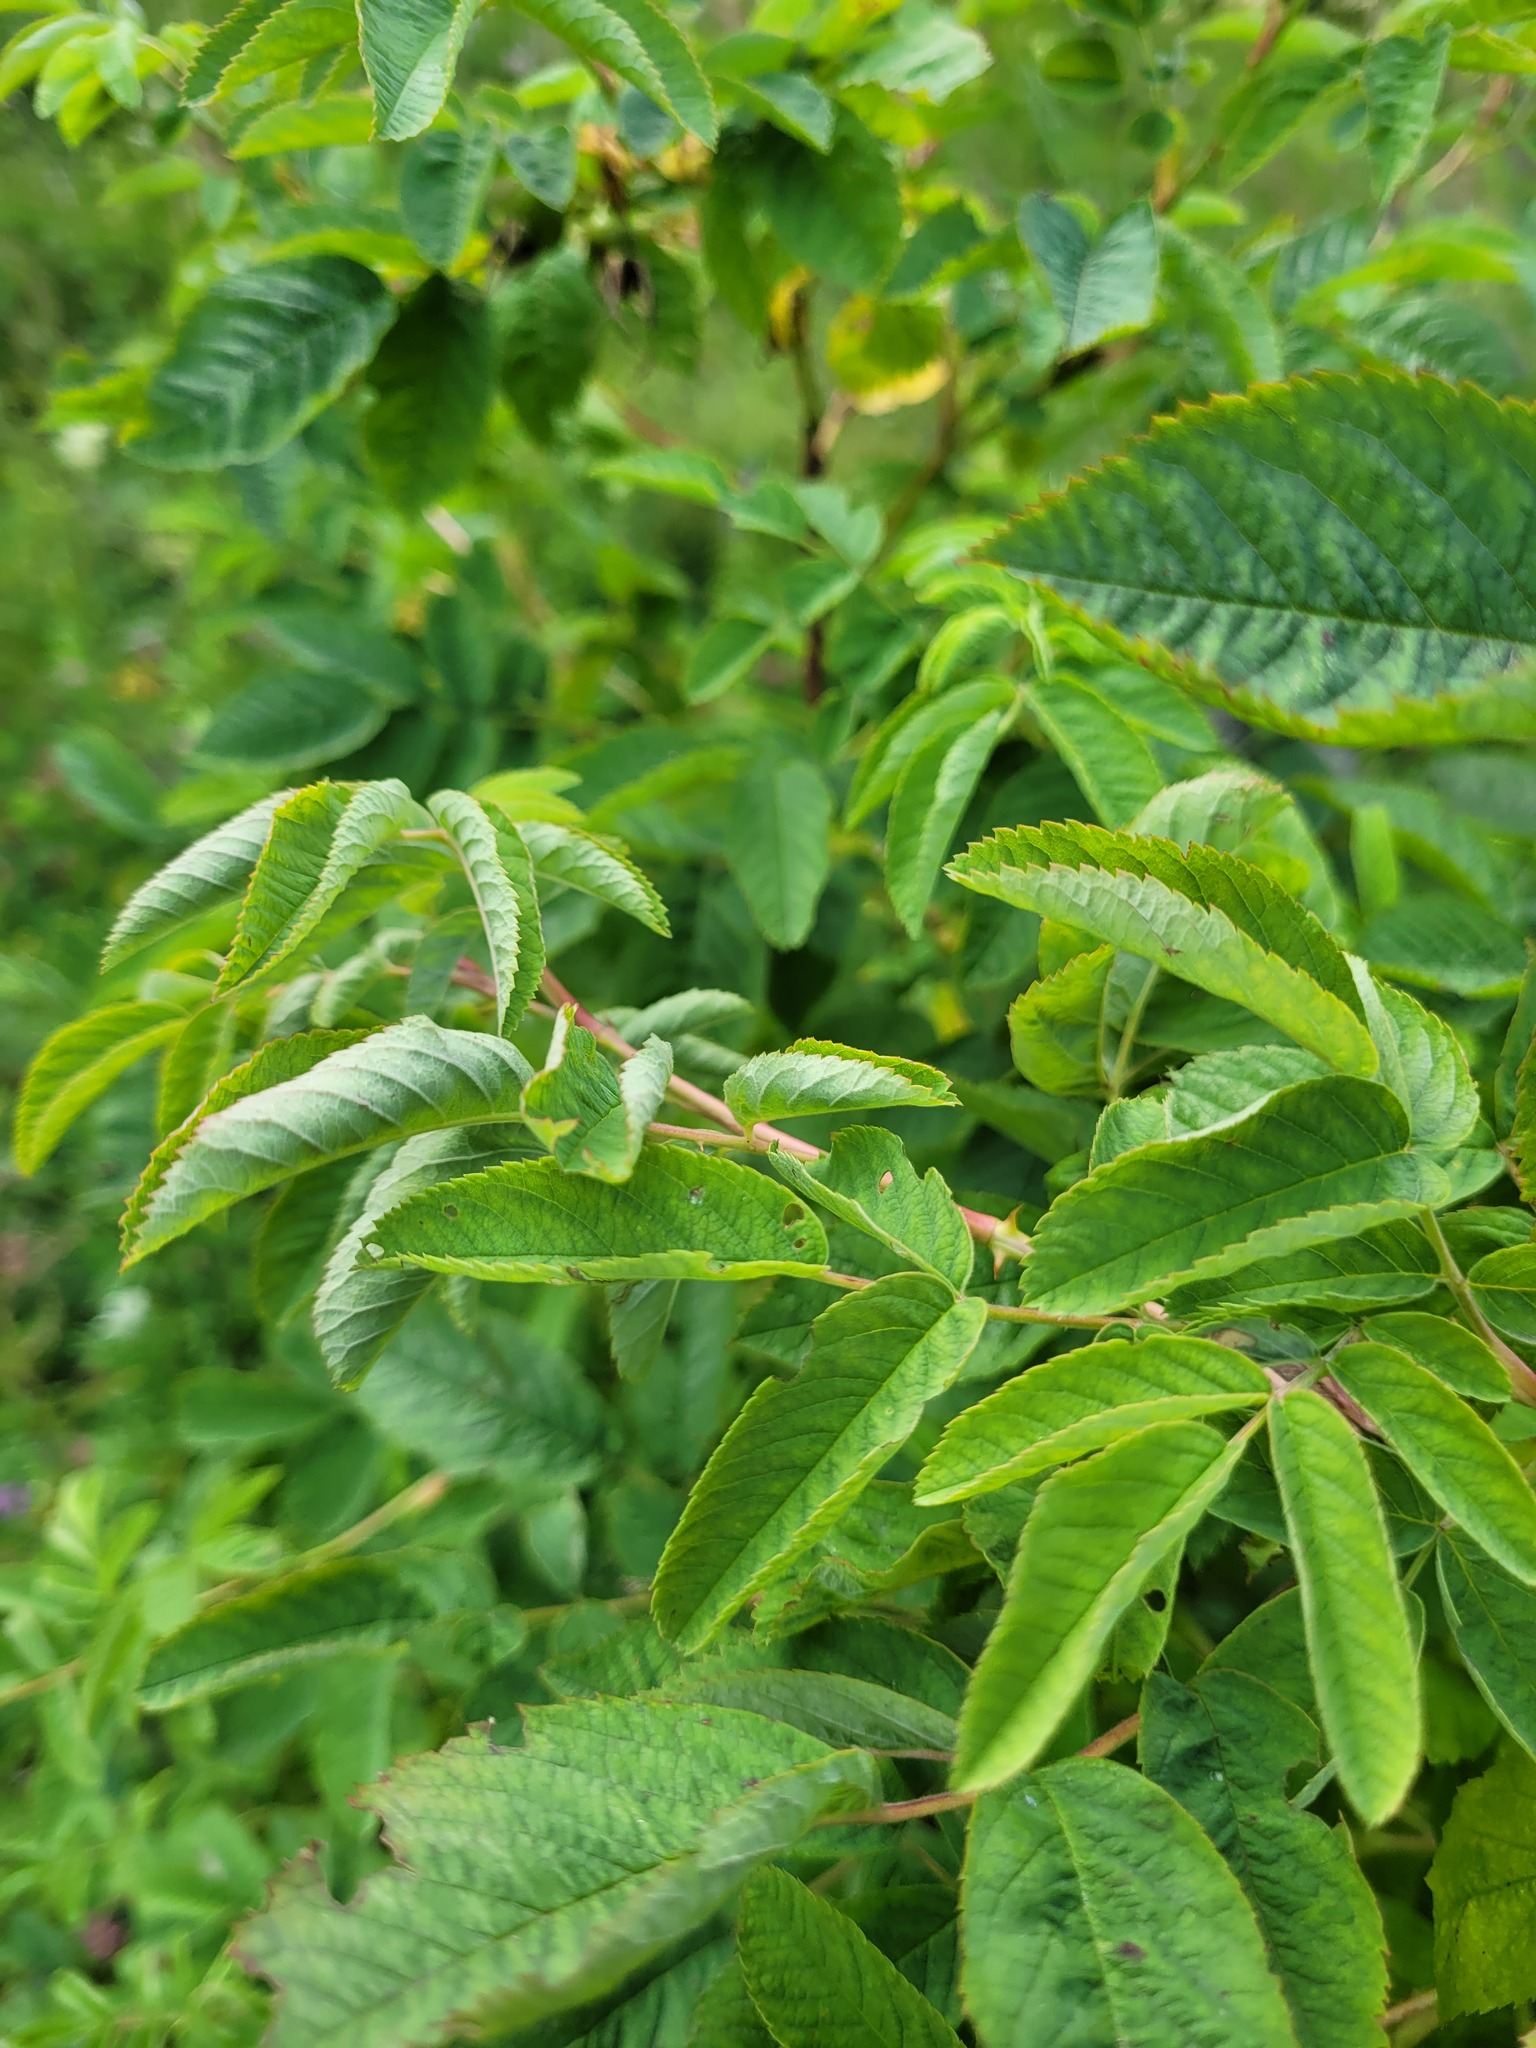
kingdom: Plantae
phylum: Tracheophyta
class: Magnoliopsida
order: Rosales
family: Rosaceae
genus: Rosa
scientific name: Rosa glabrifolia
